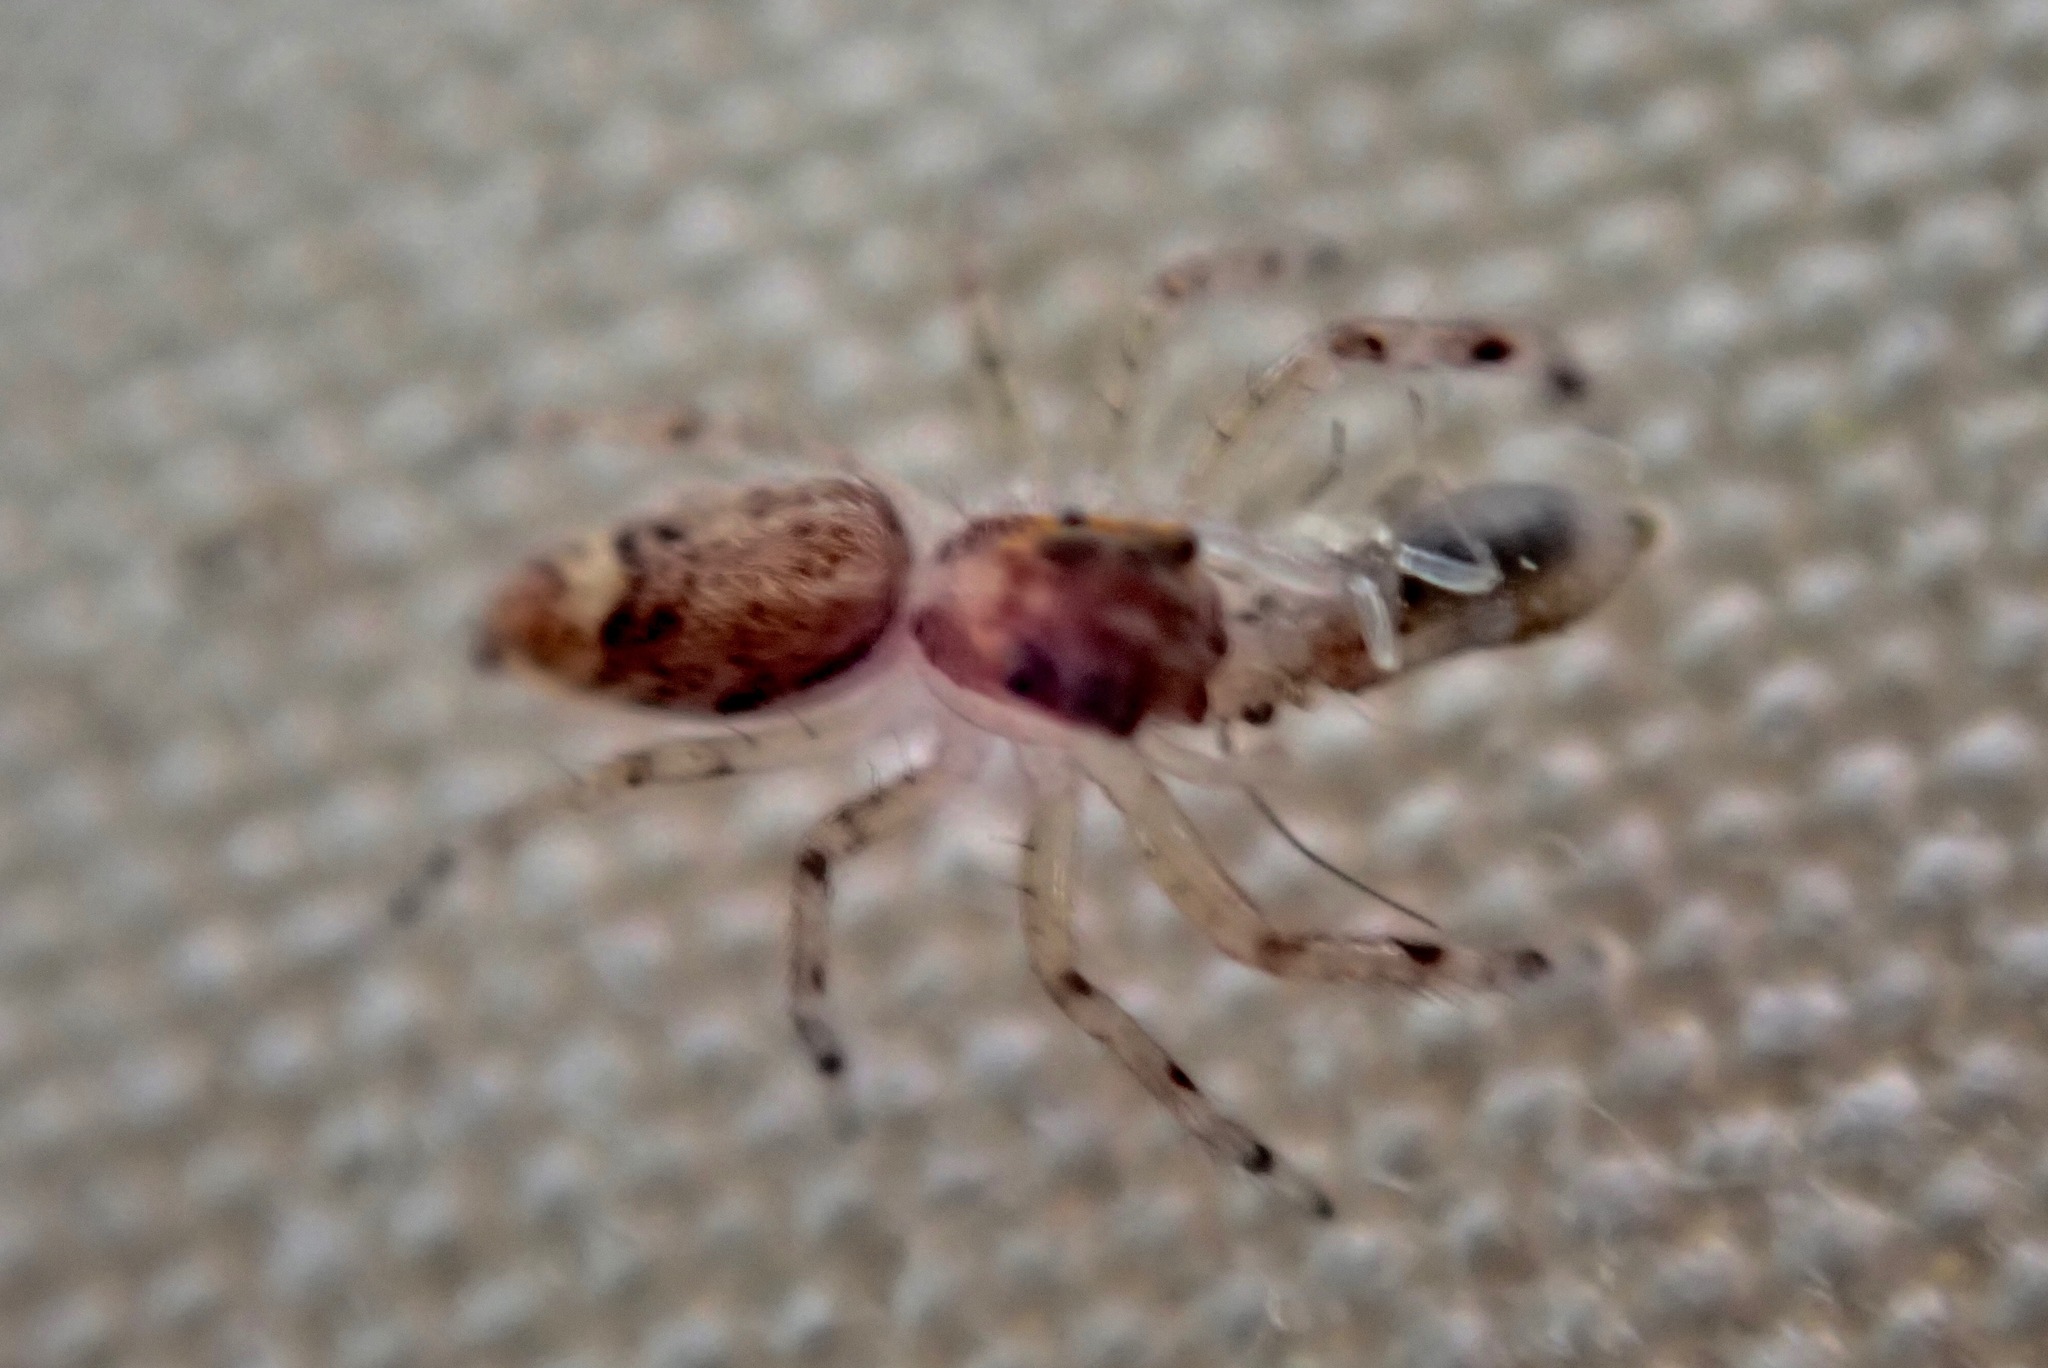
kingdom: Animalia
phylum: Arthropoda
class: Arachnida
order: Araneae
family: Salticidae
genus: Helpis
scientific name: Helpis minitabunda
